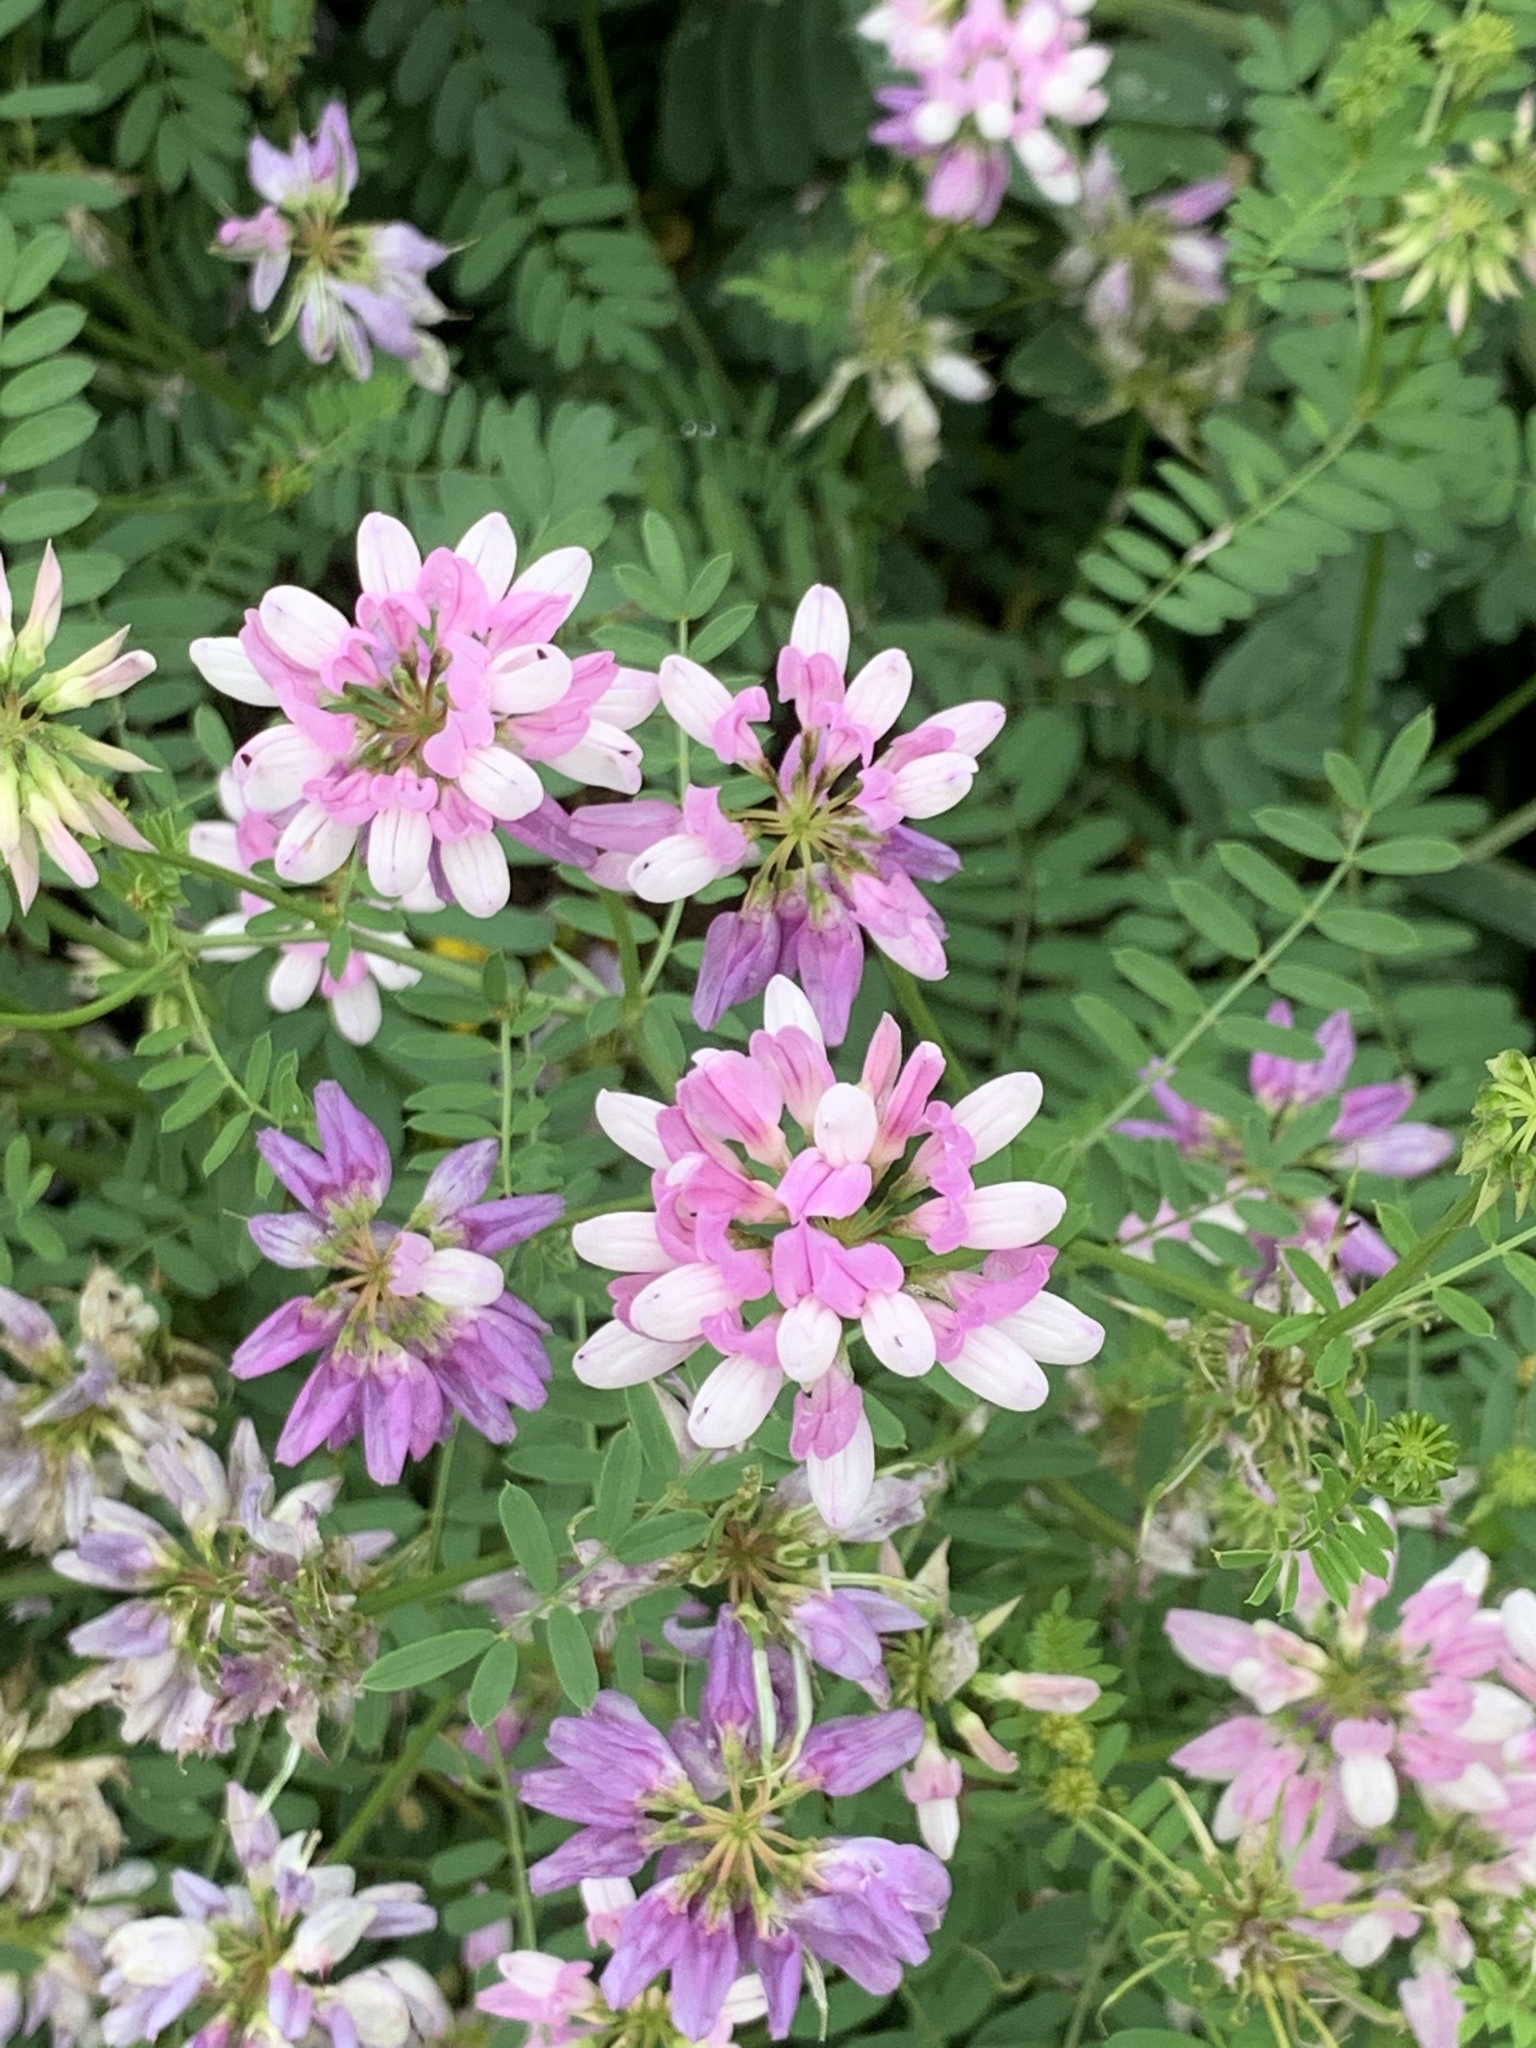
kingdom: Plantae
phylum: Tracheophyta
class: Magnoliopsida
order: Fabales
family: Fabaceae
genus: Coronilla
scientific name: Coronilla varia
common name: Crownvetch
